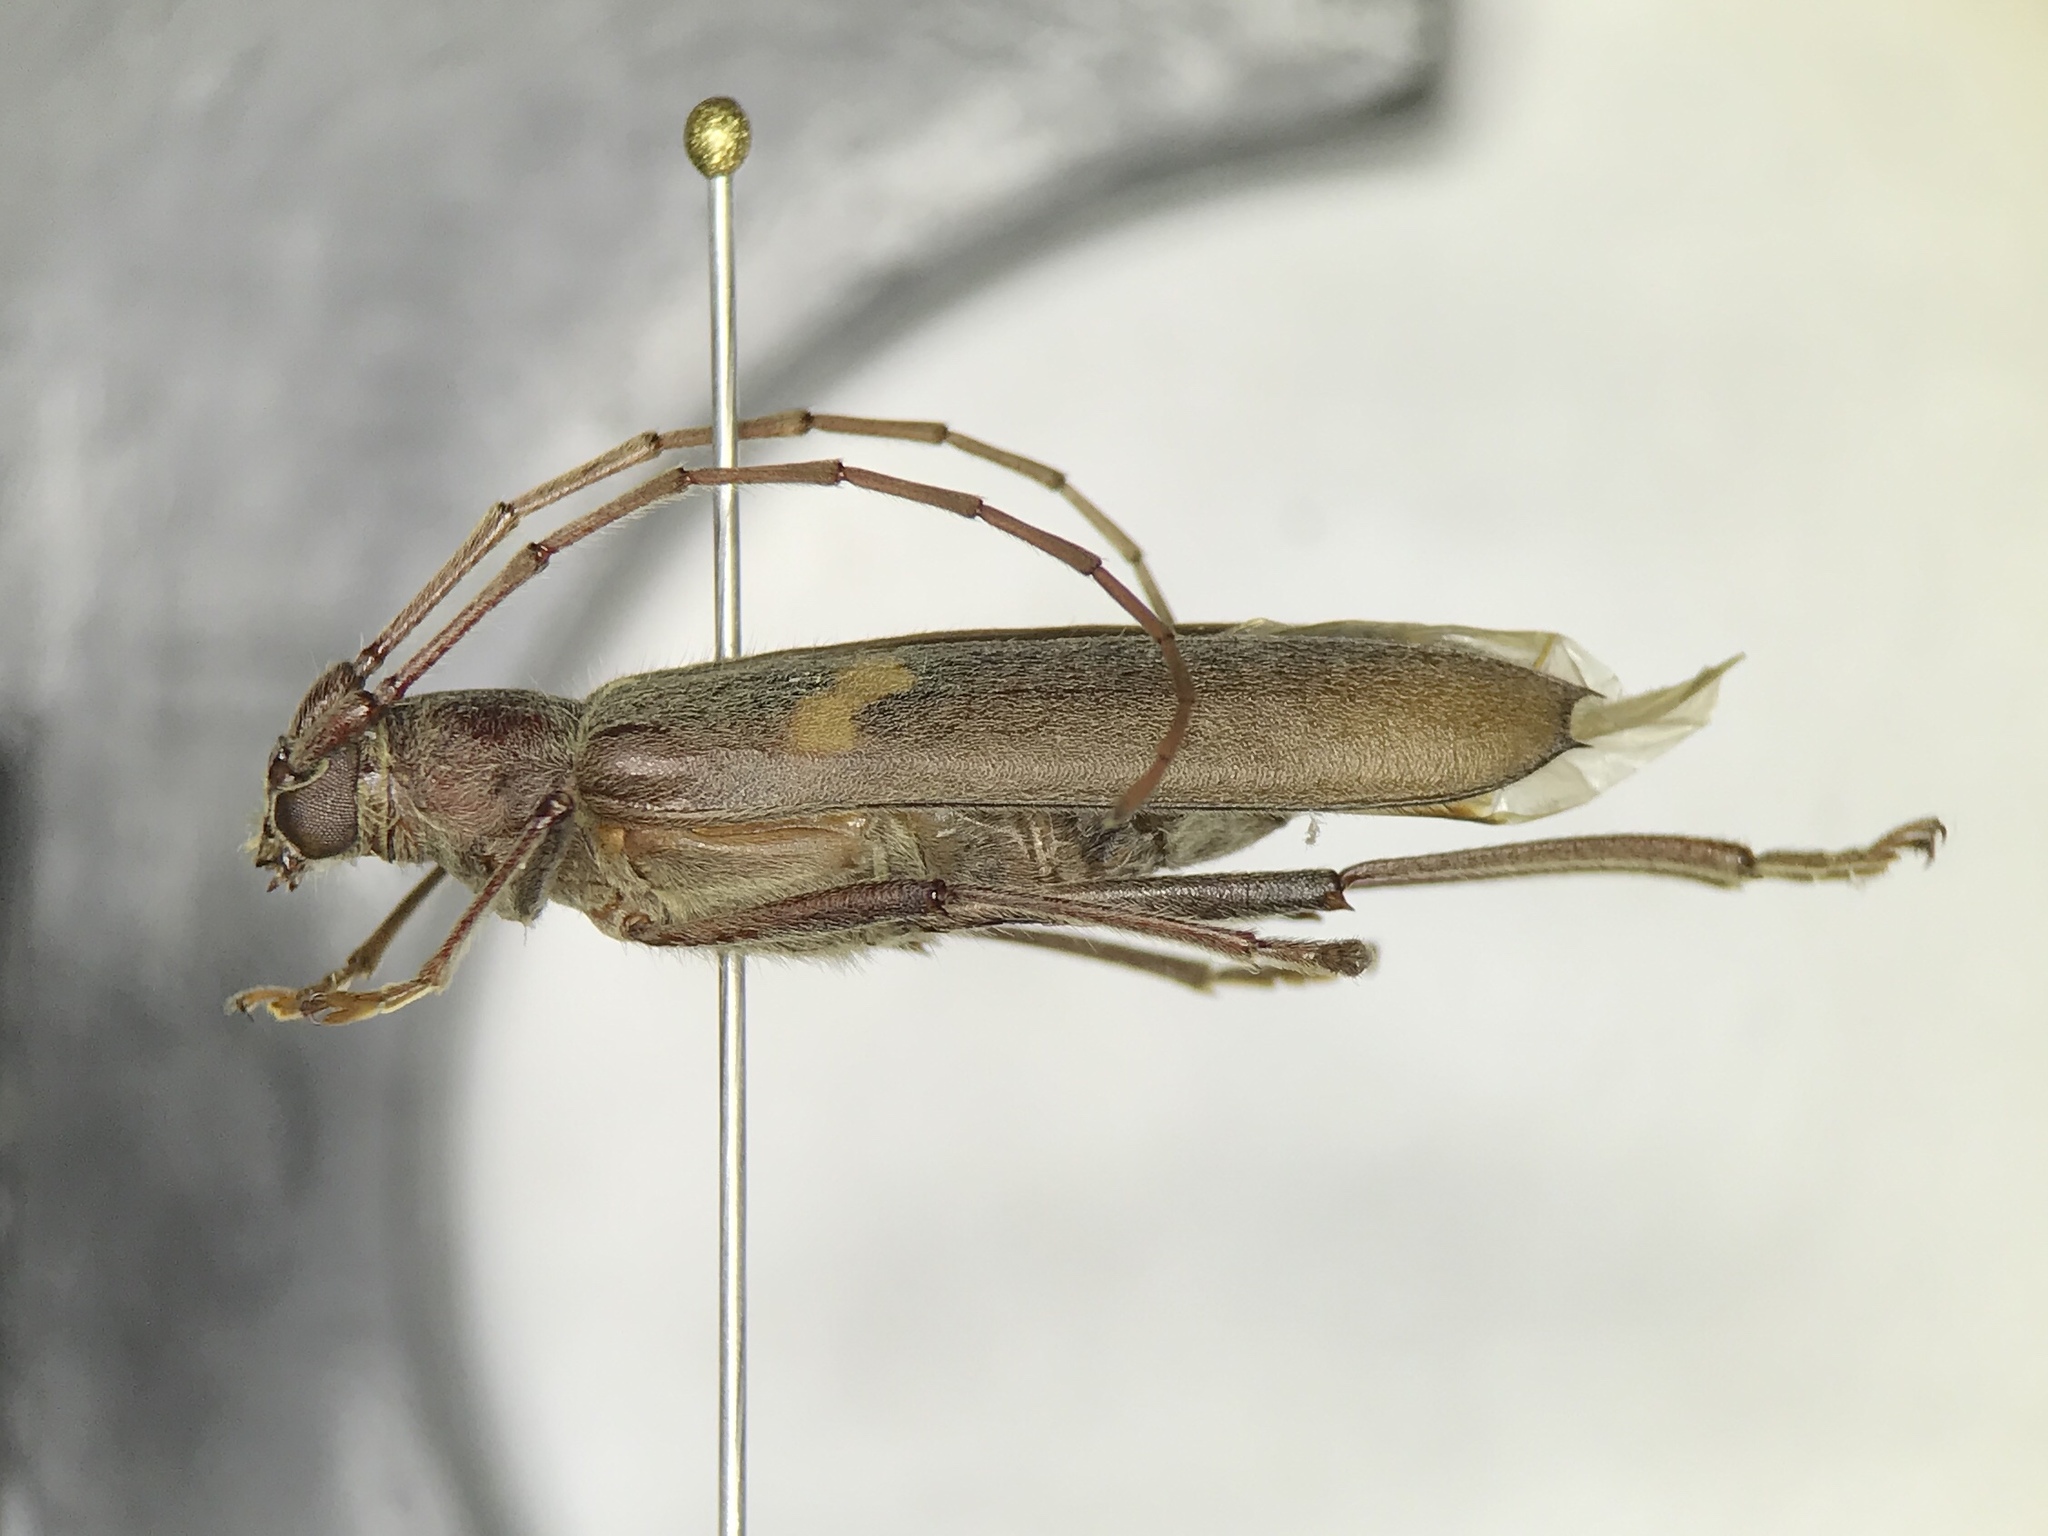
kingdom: Animalia
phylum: Arthropoda
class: Insecta
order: Coleoptera
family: Cerambycidae
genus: Knulliana
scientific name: Knulliana cincta
